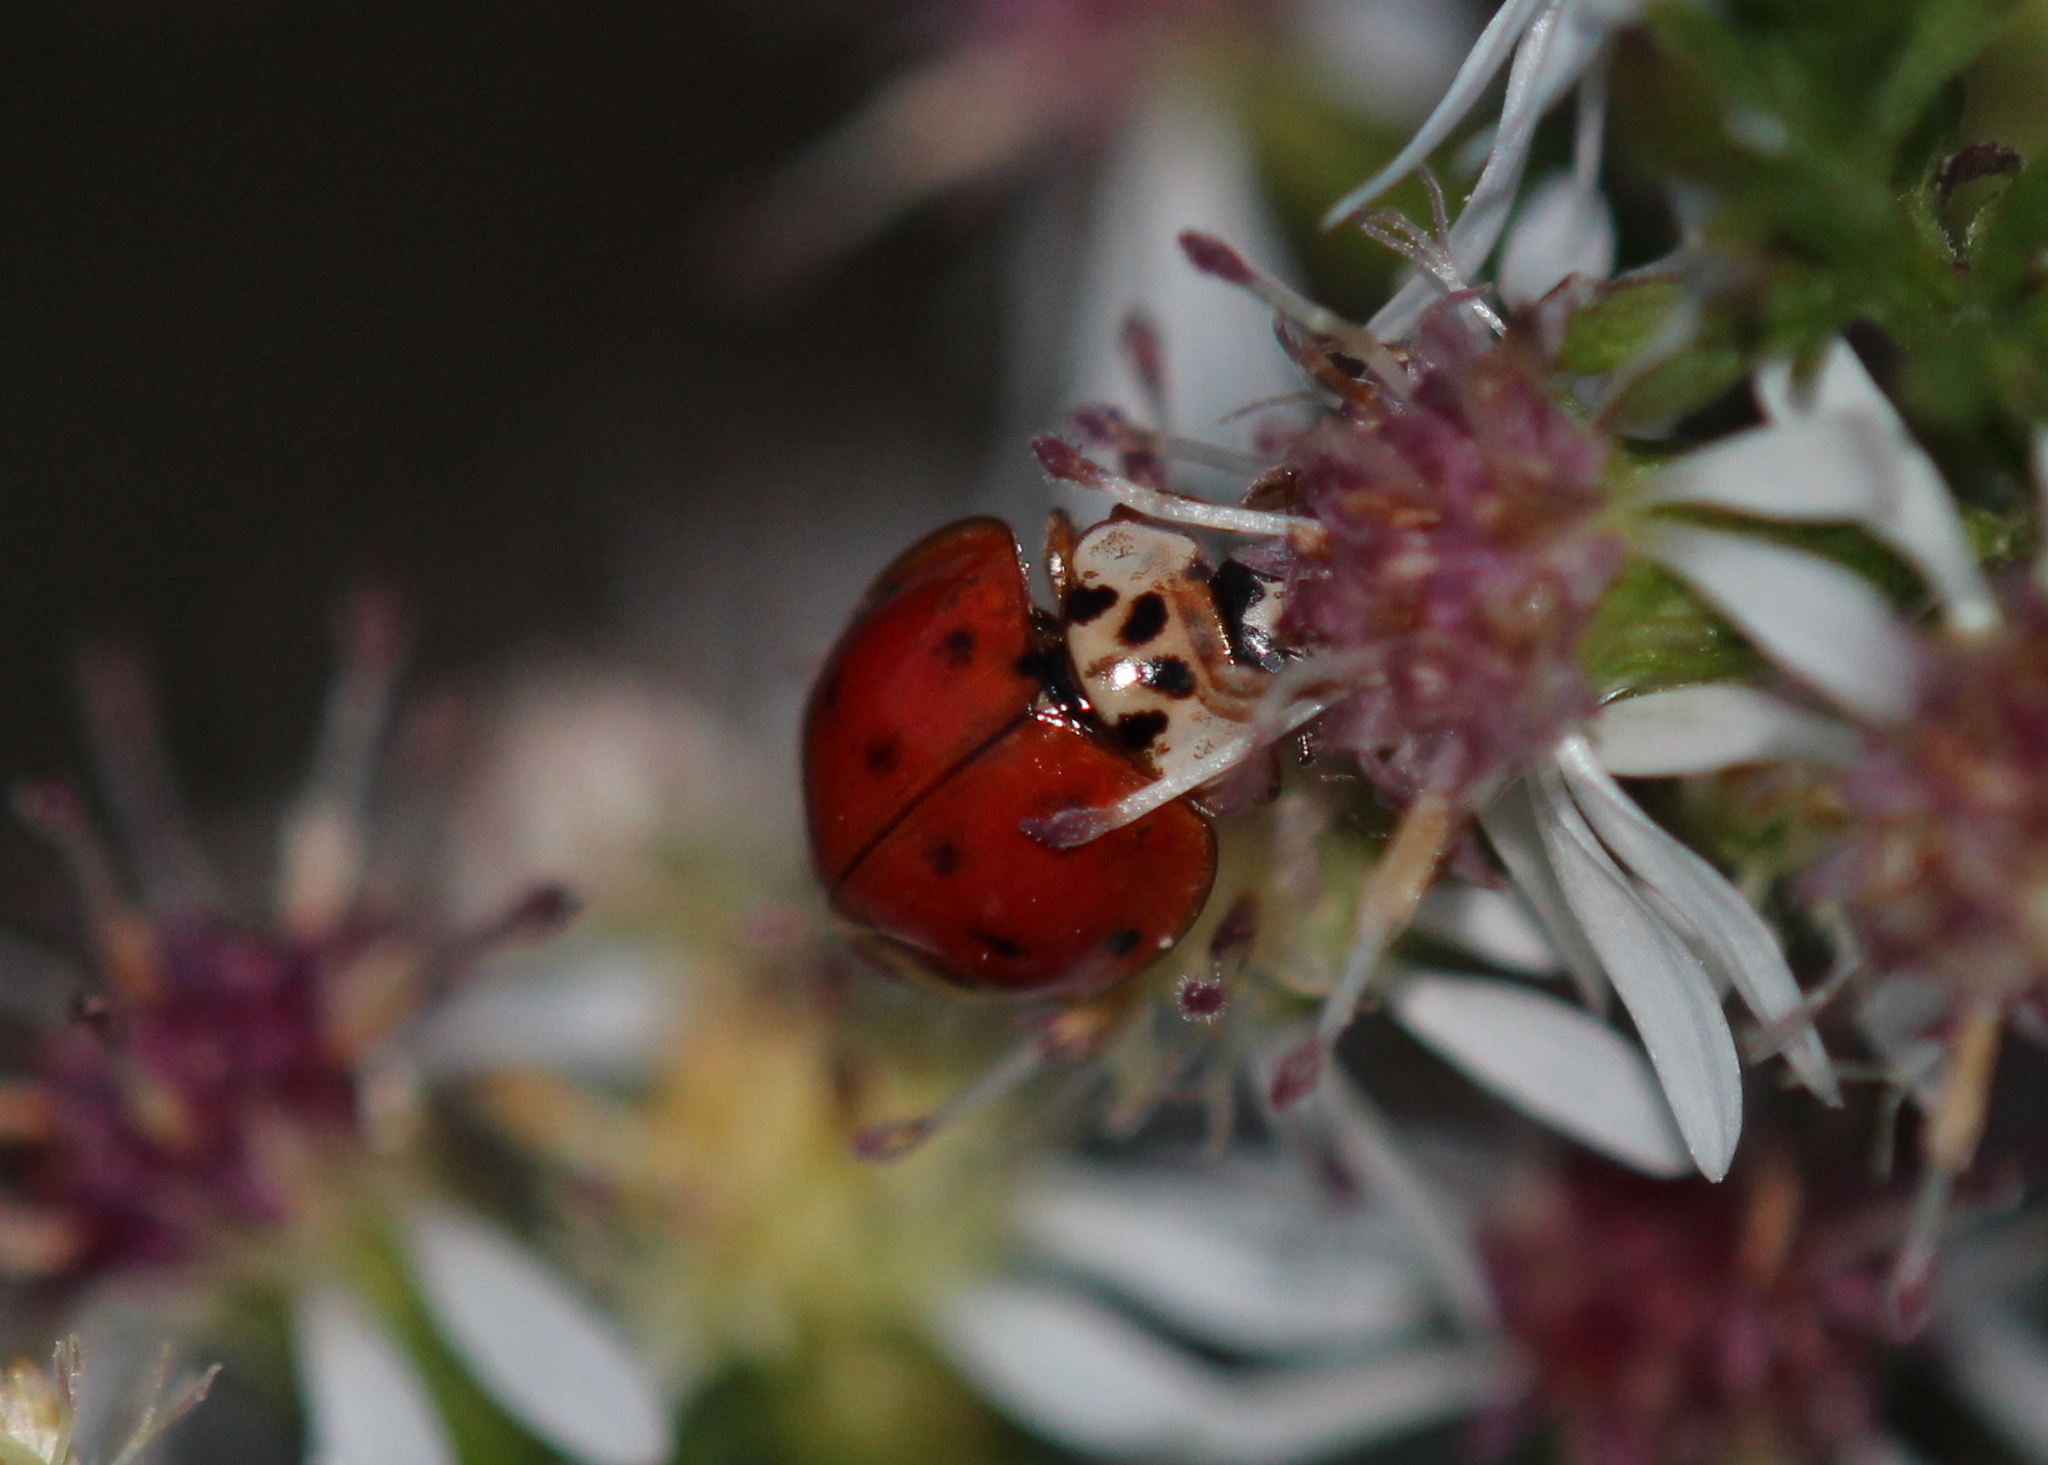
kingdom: Animalia
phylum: Arthropoda
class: Insecta
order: Coleoptera
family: Coccinellidae
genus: Harmonia
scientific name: Harmonia axyridis
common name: Harlequin ladybird
